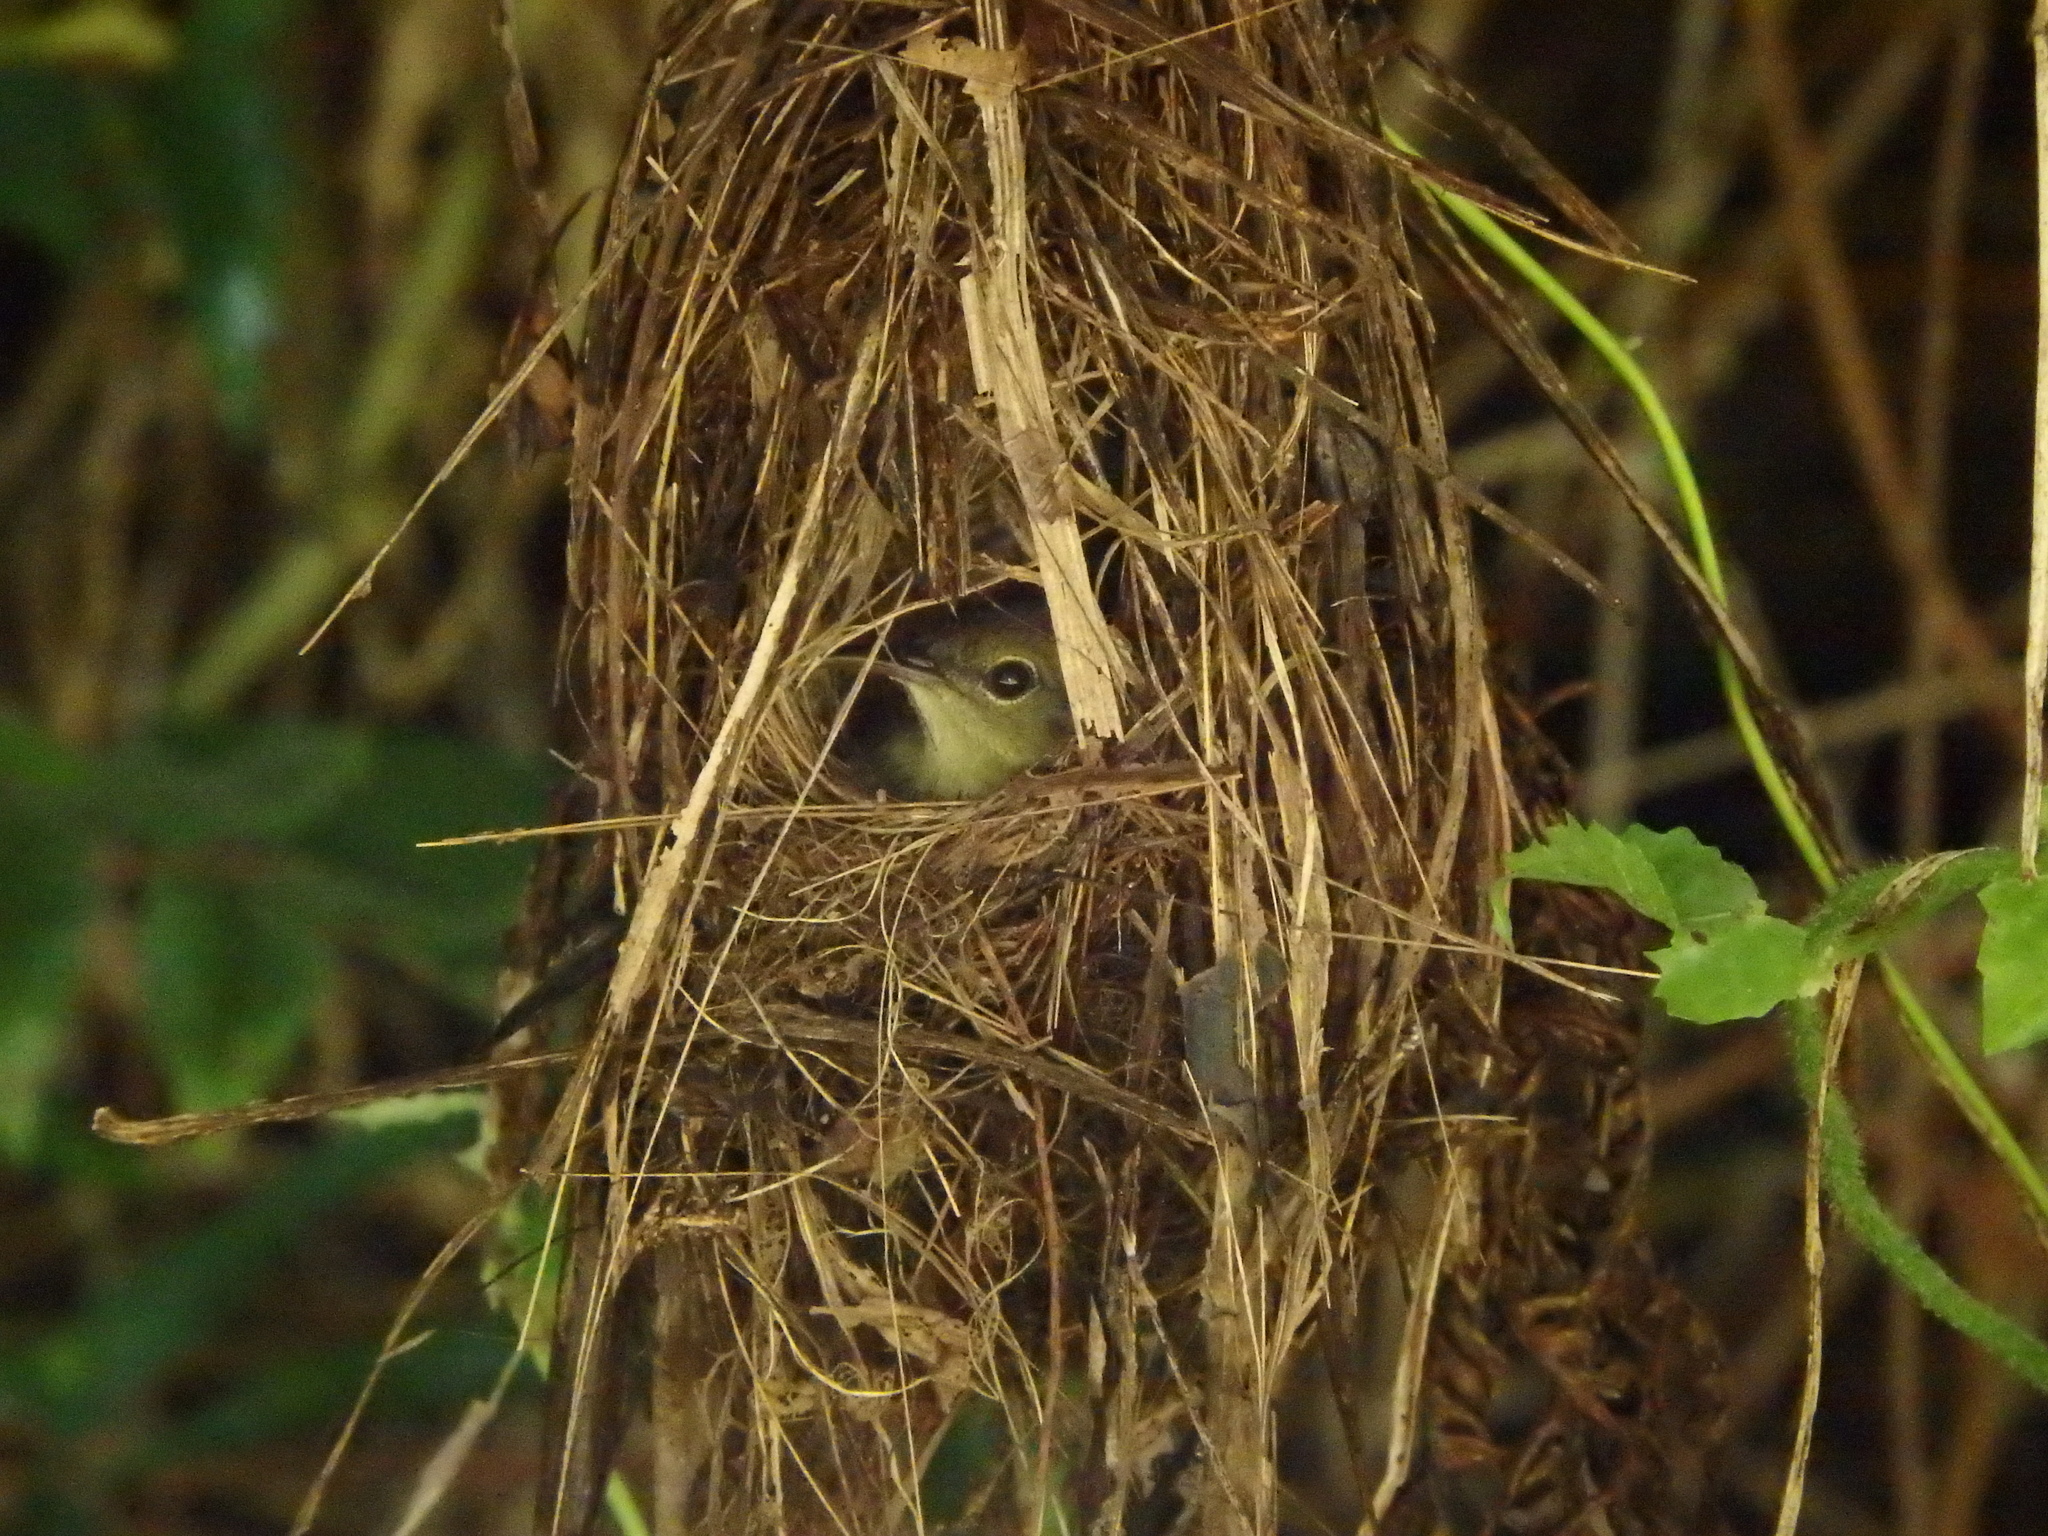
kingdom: Animalia
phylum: Chordata
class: Aves
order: Passeriformes
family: Nectariniidae
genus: Aethopyga
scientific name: Aethopyga siparaja
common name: Crimson sunbird
